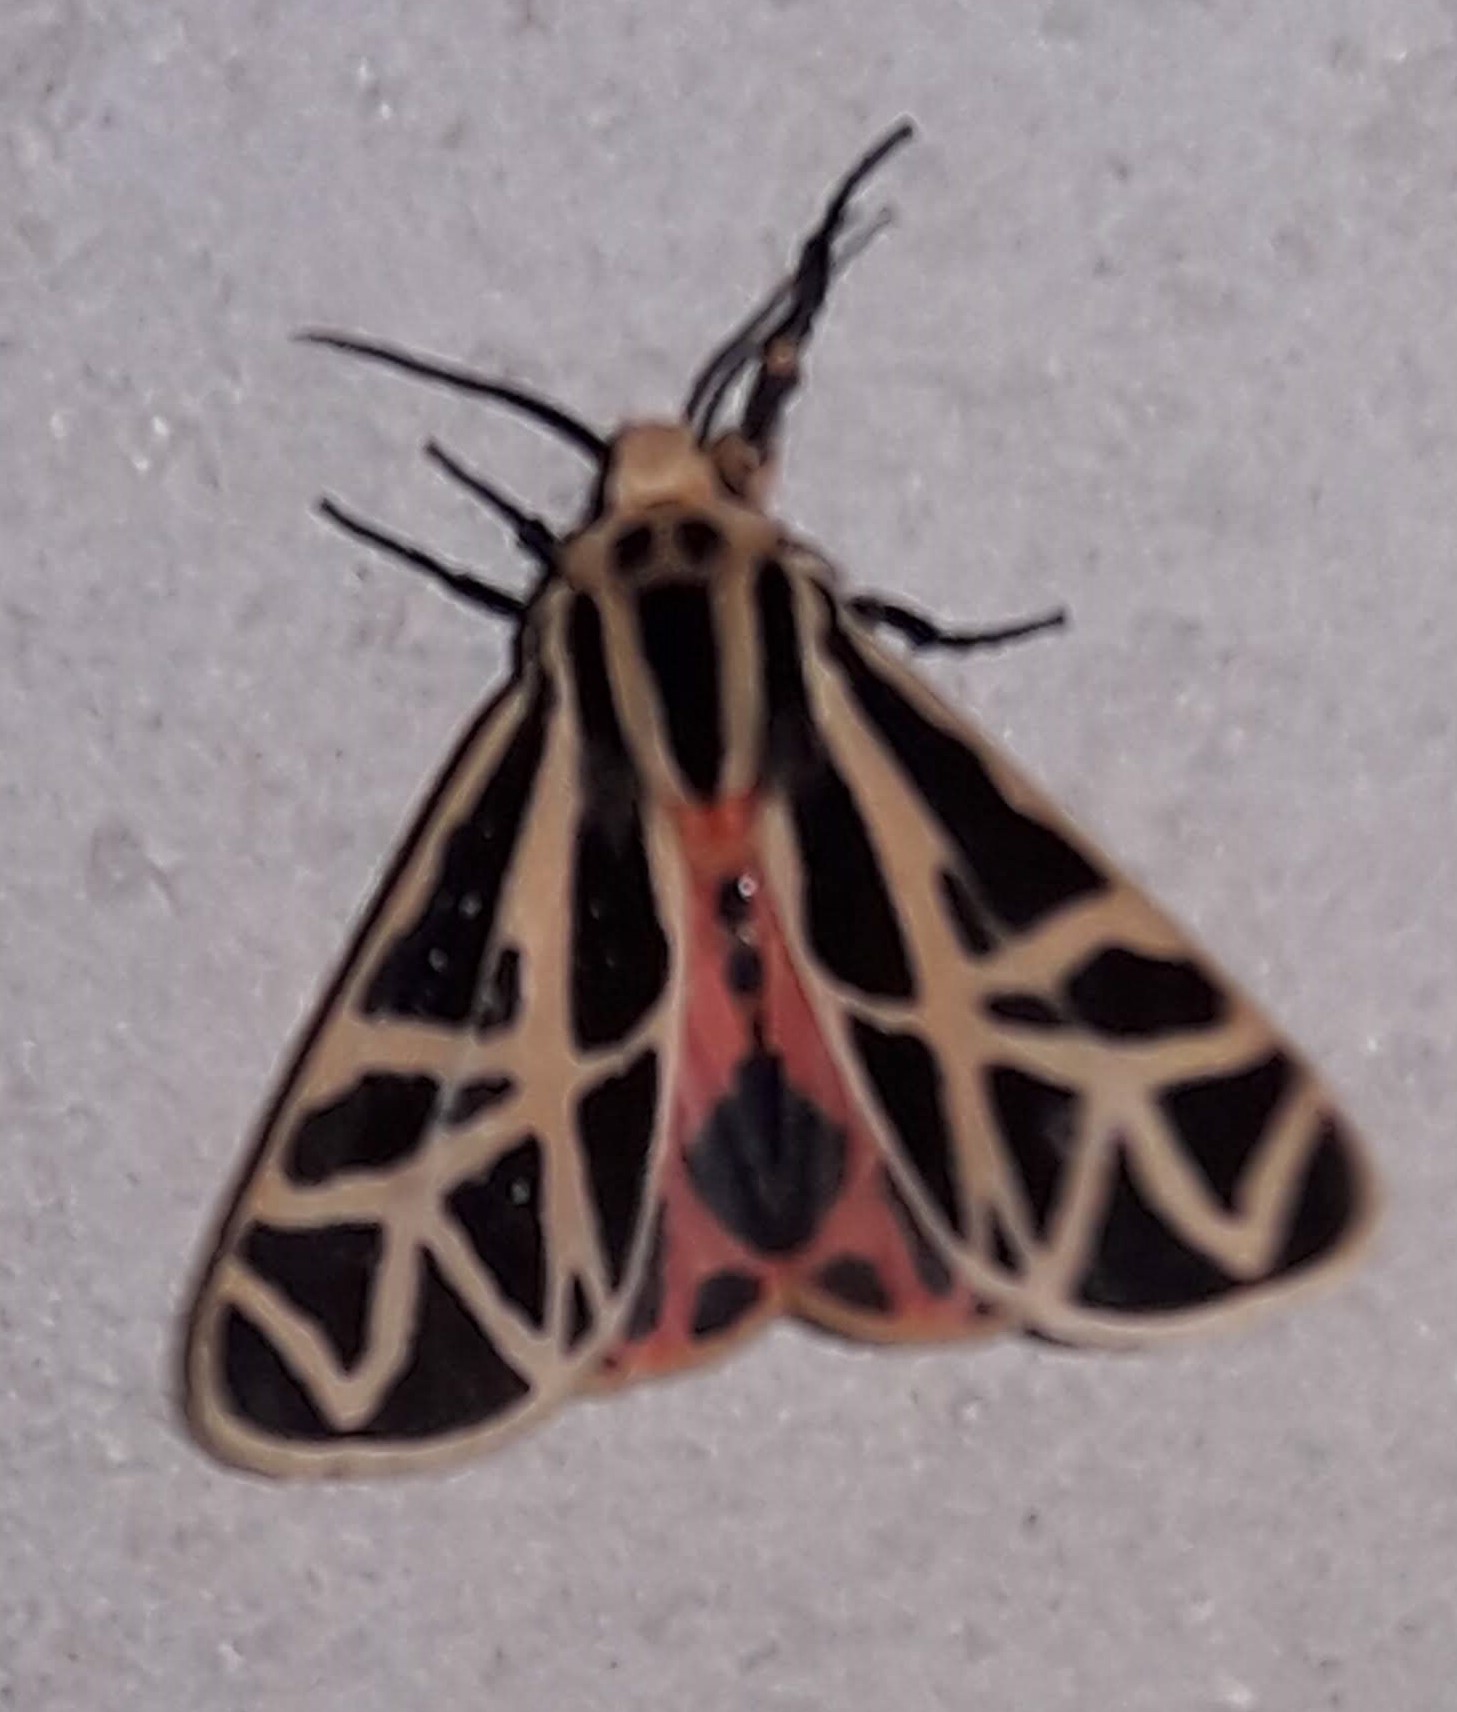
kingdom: Animalia
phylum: Arthropoda
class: Insecta
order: Lepidoptera
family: Erebidae
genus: Apantesis
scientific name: Apantesis
